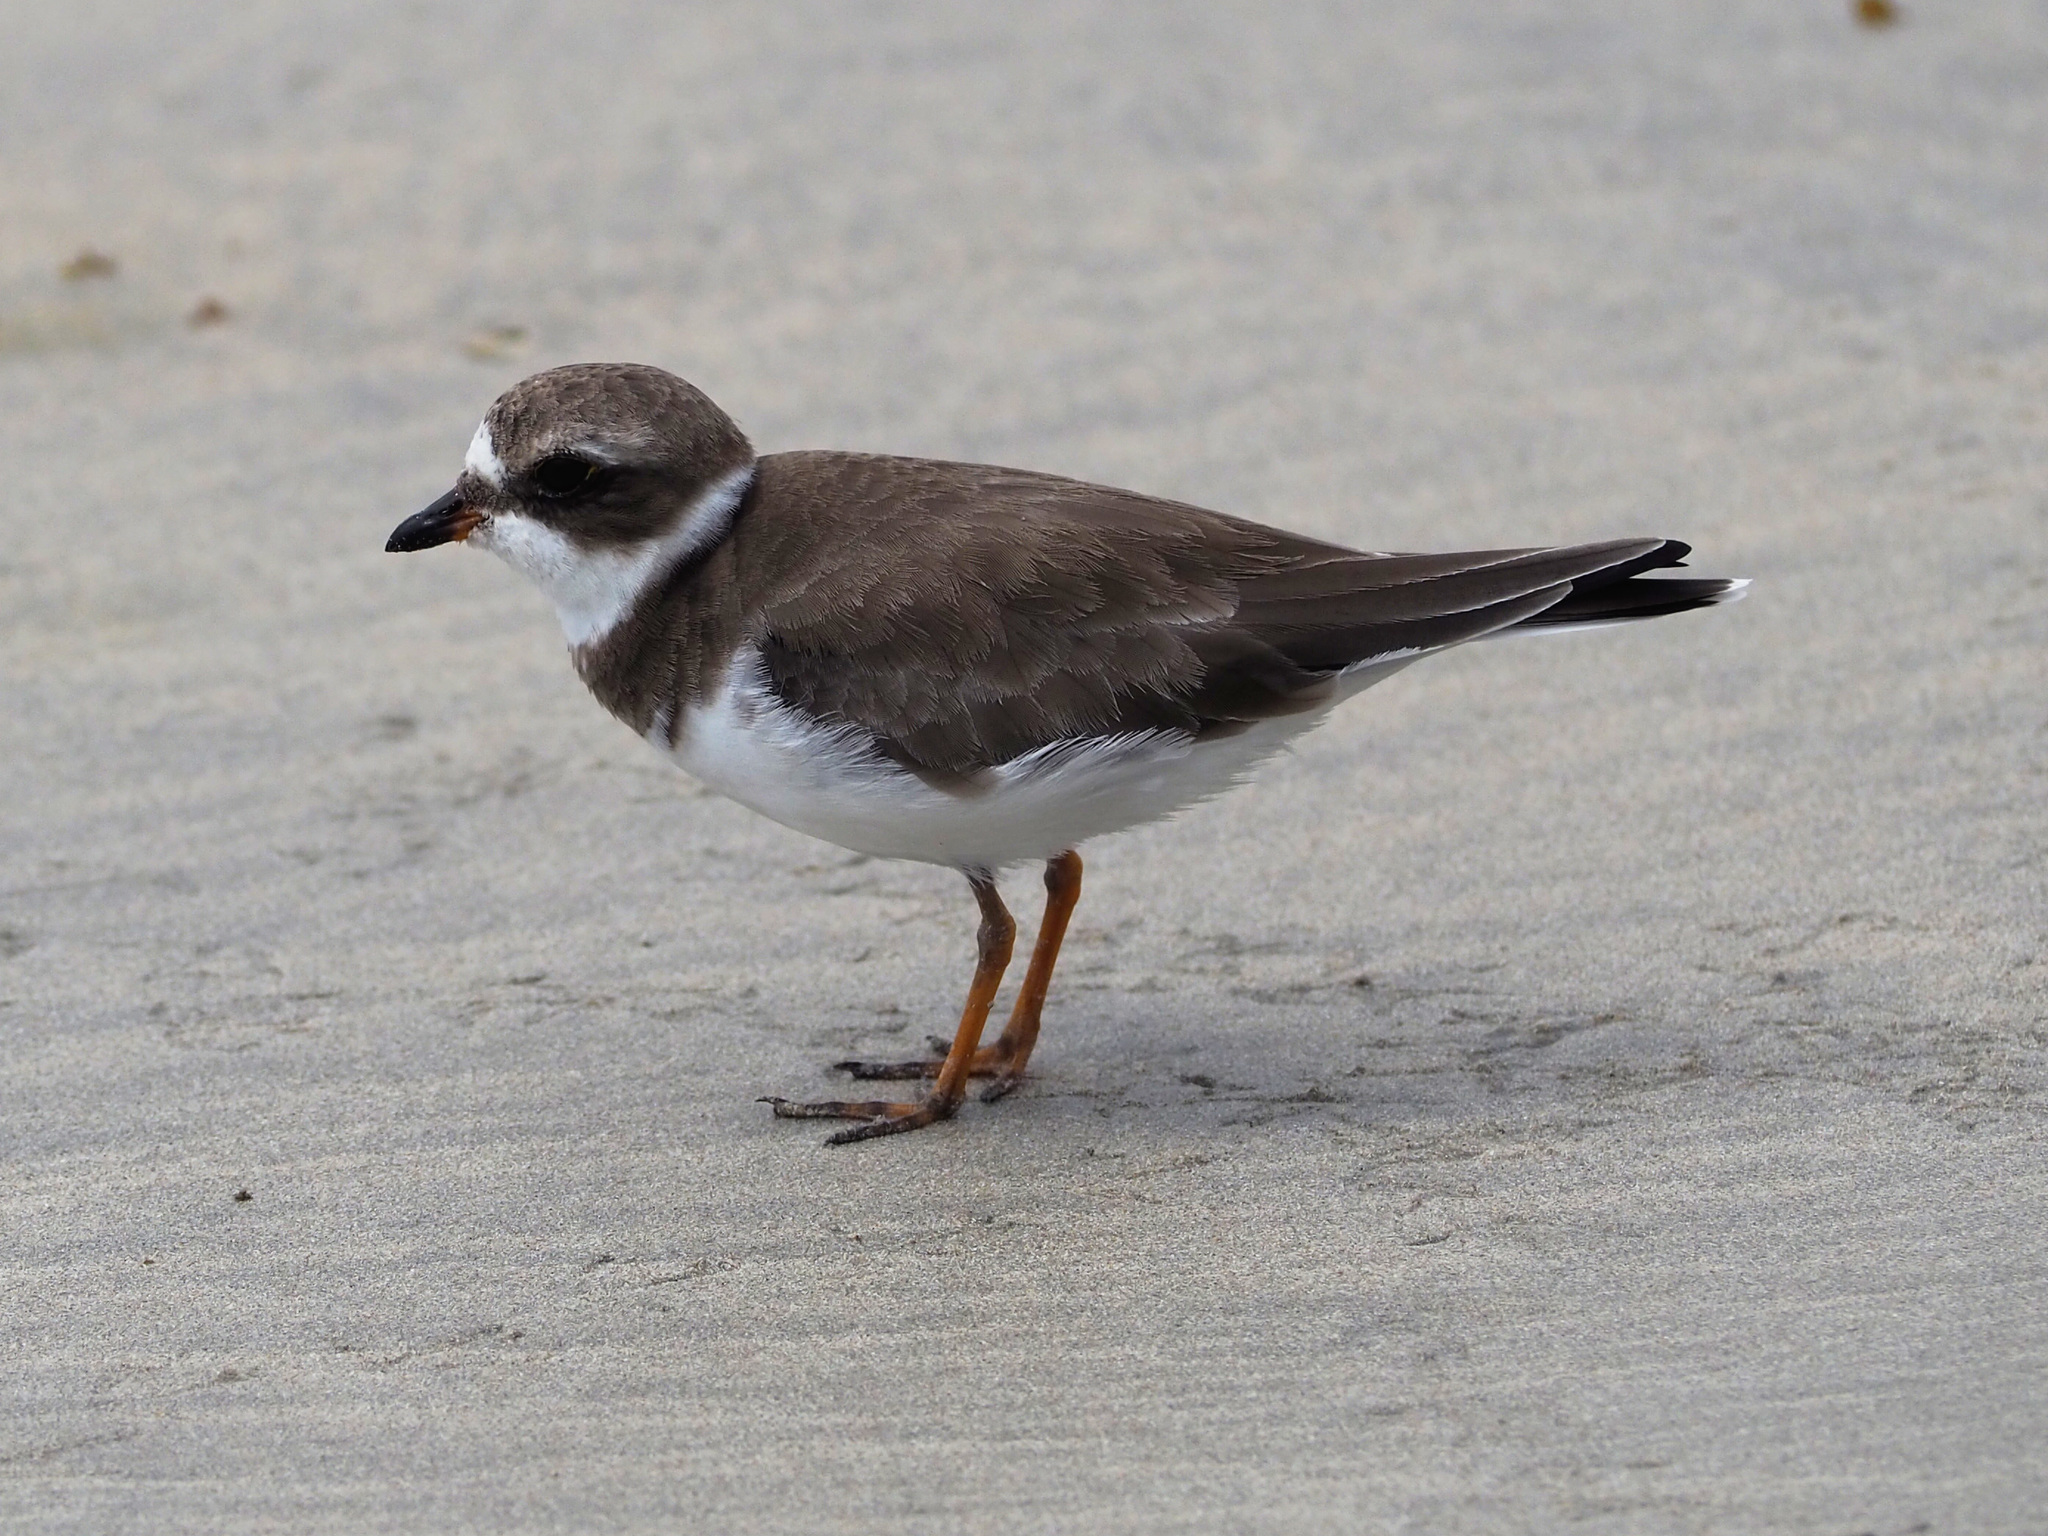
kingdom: Animalia
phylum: Chordata
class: Aves
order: Charadriiformes
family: Charadriidae
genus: Charadrius
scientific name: Charadrius semipalmatus
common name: Semipalmated plover
